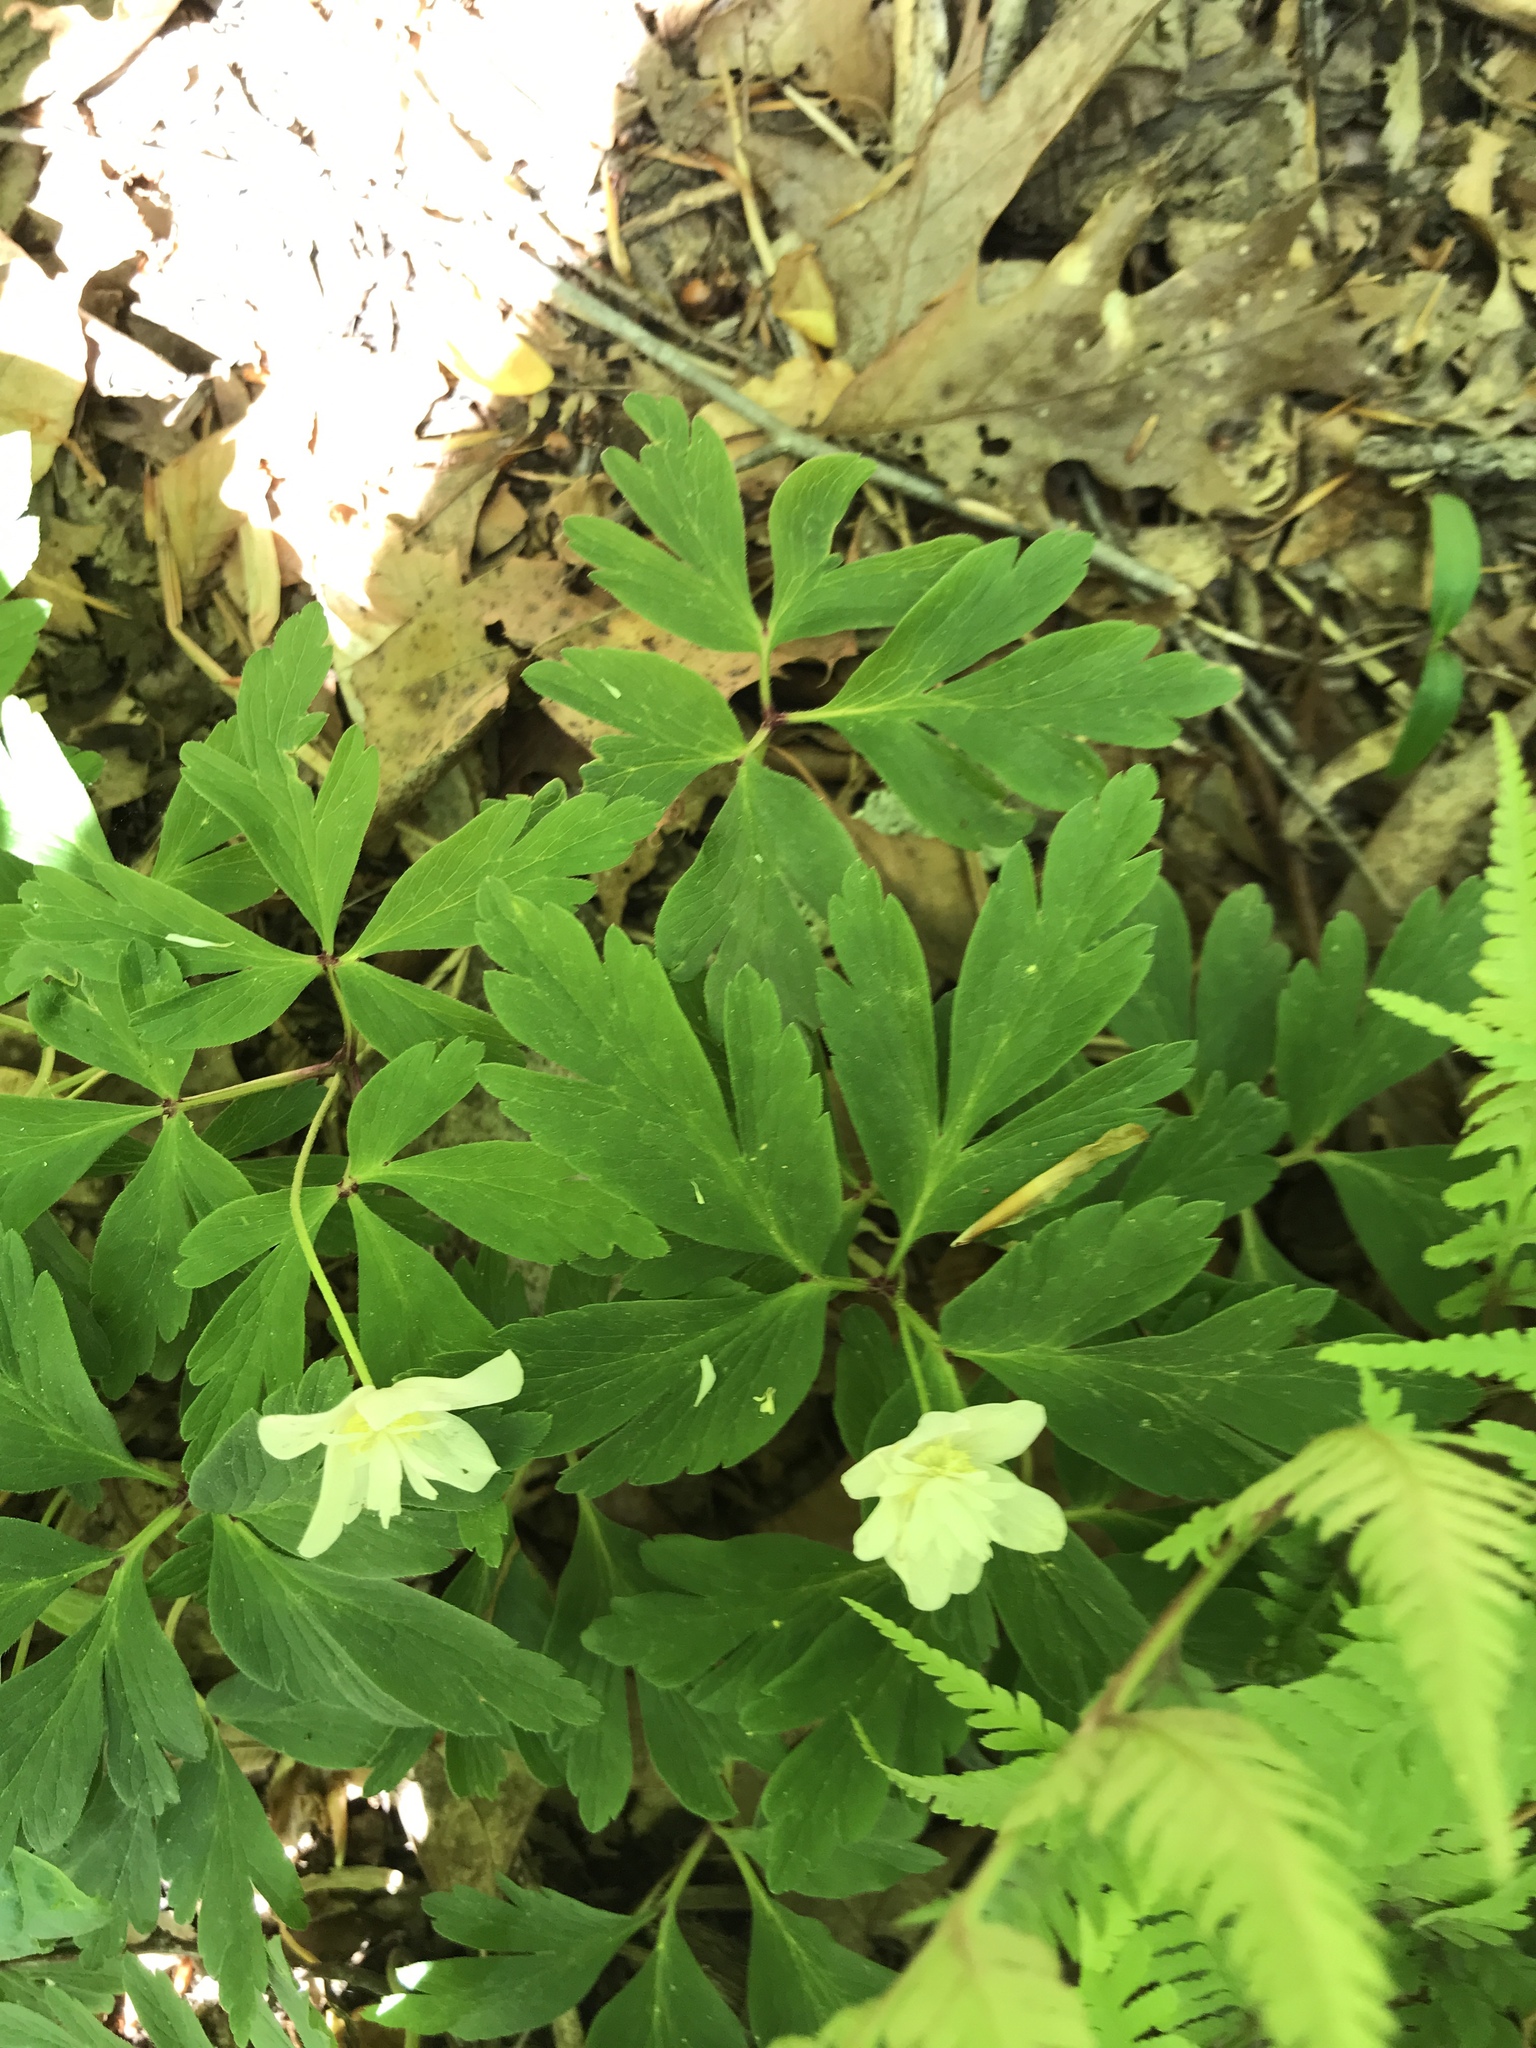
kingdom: Plantae
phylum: Tracheophyta
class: Magnoliopsida
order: Ranunculales
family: Ranunculaceae
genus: Anemone
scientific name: Anemone quinquefolia
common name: Wood anemone
